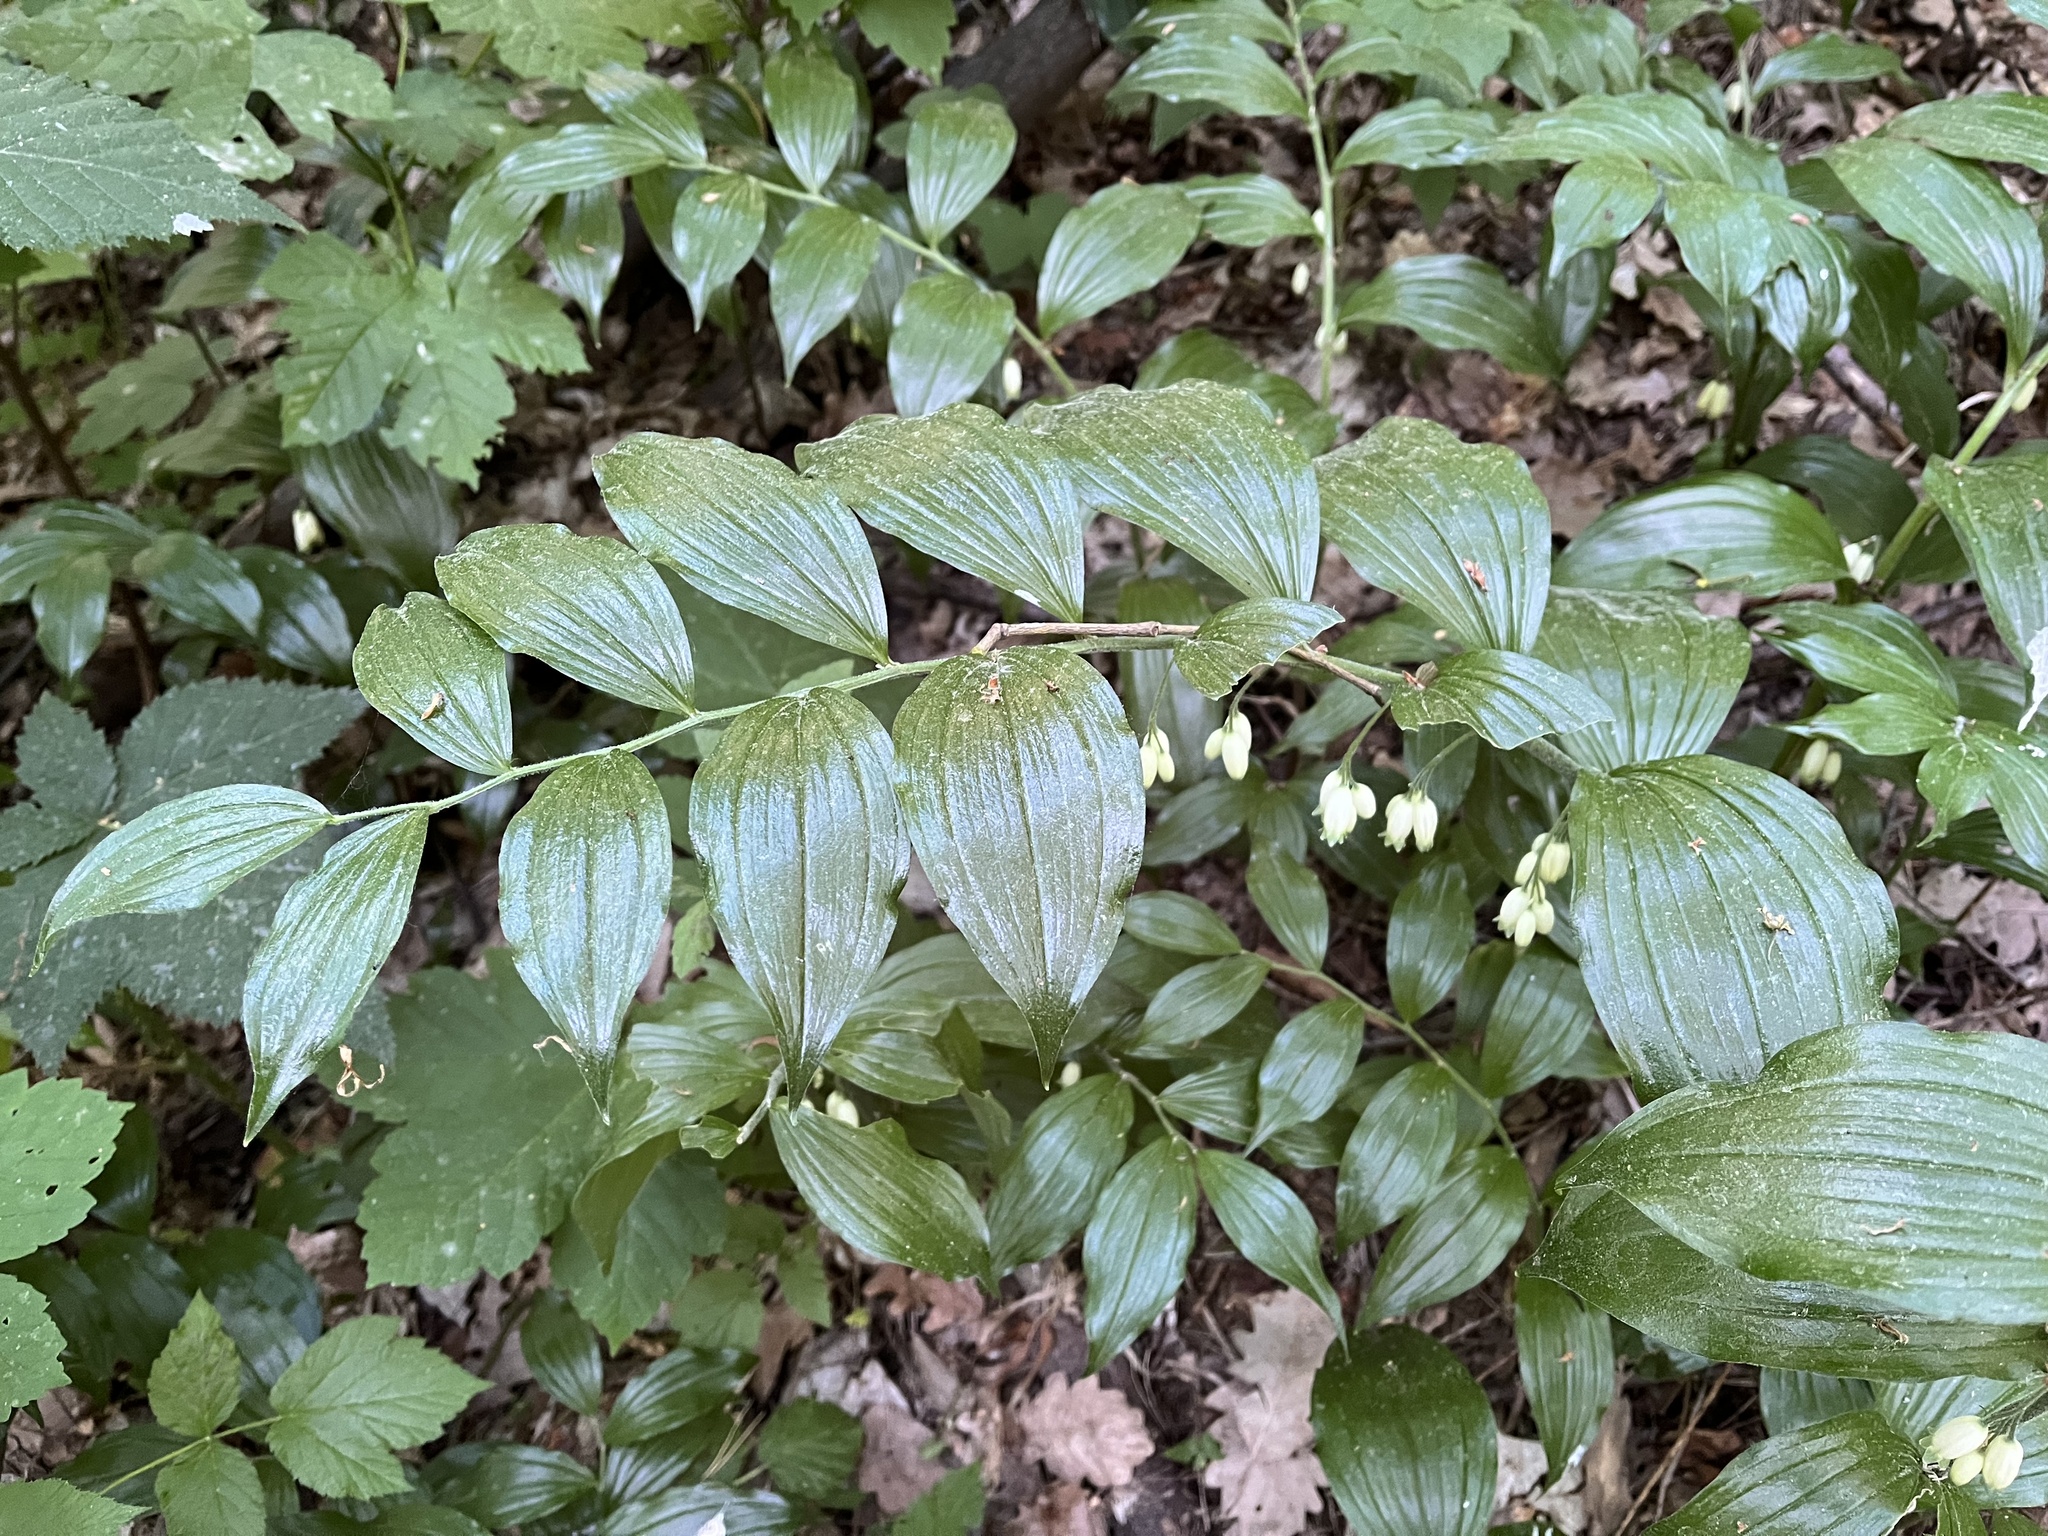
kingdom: Plantae
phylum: Tracheophyta
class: Liliopsida
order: Asparagales
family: Asparagaceae
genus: Polygonatum
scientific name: Polygonatum multiflorum
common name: Solomon's-seal
